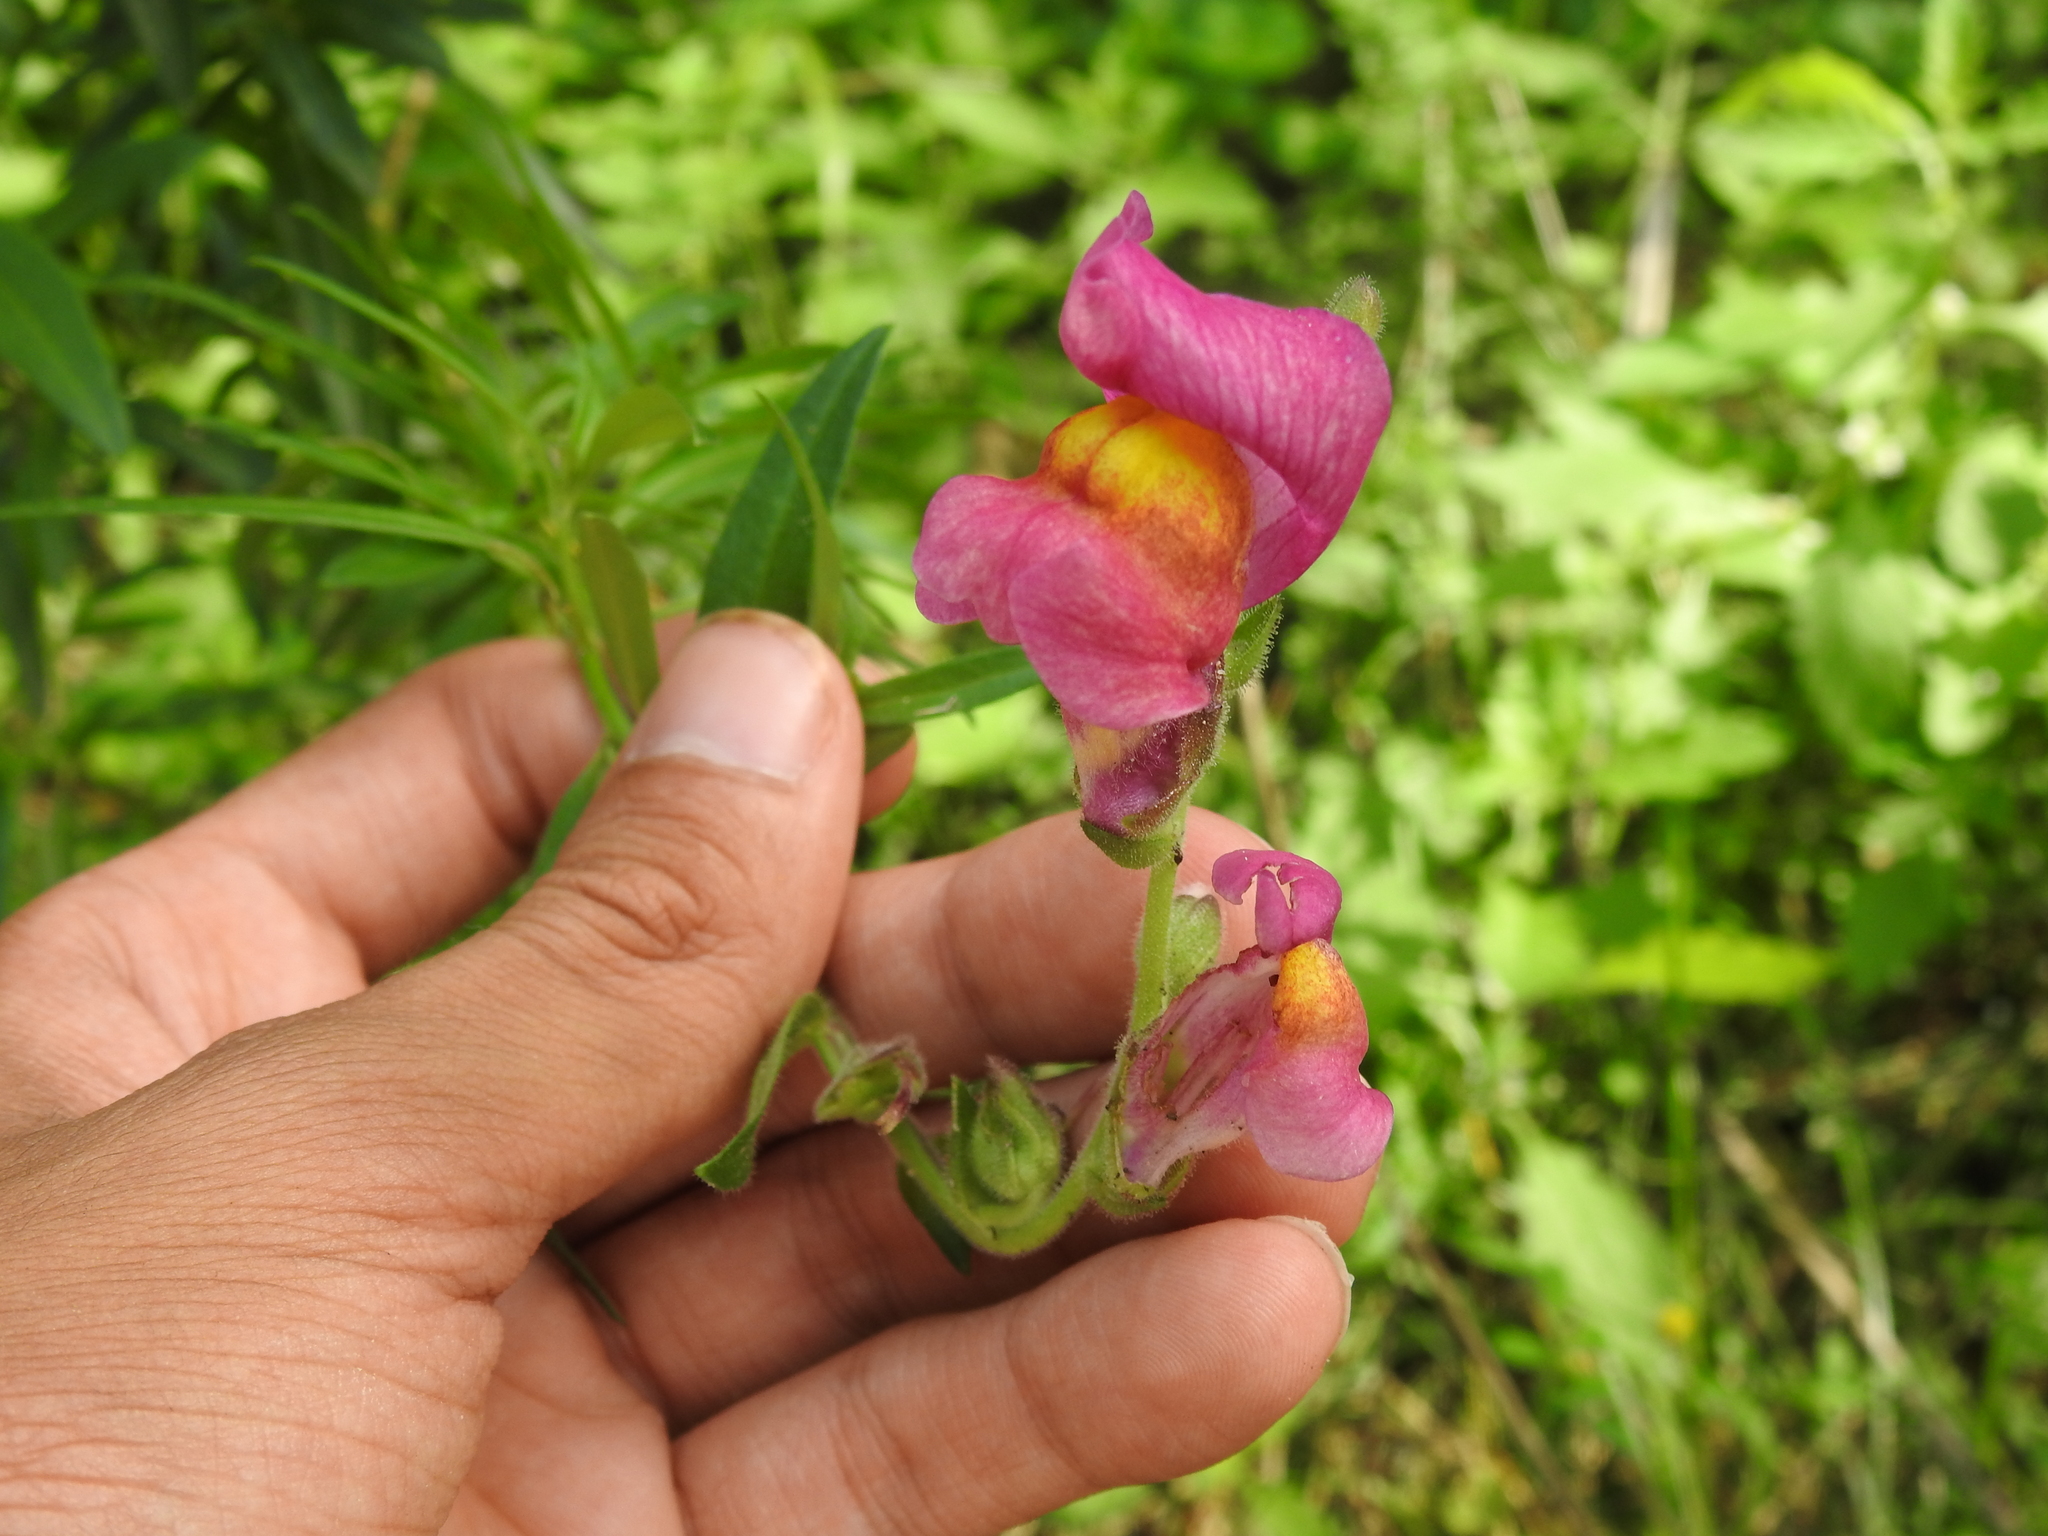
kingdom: Plantae
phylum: Tracheophyta
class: Magnoliopsida
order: Lamiales
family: Plantaginaceae
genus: Antirrhinum
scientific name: Antirrhinum majus
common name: Snapdragon
